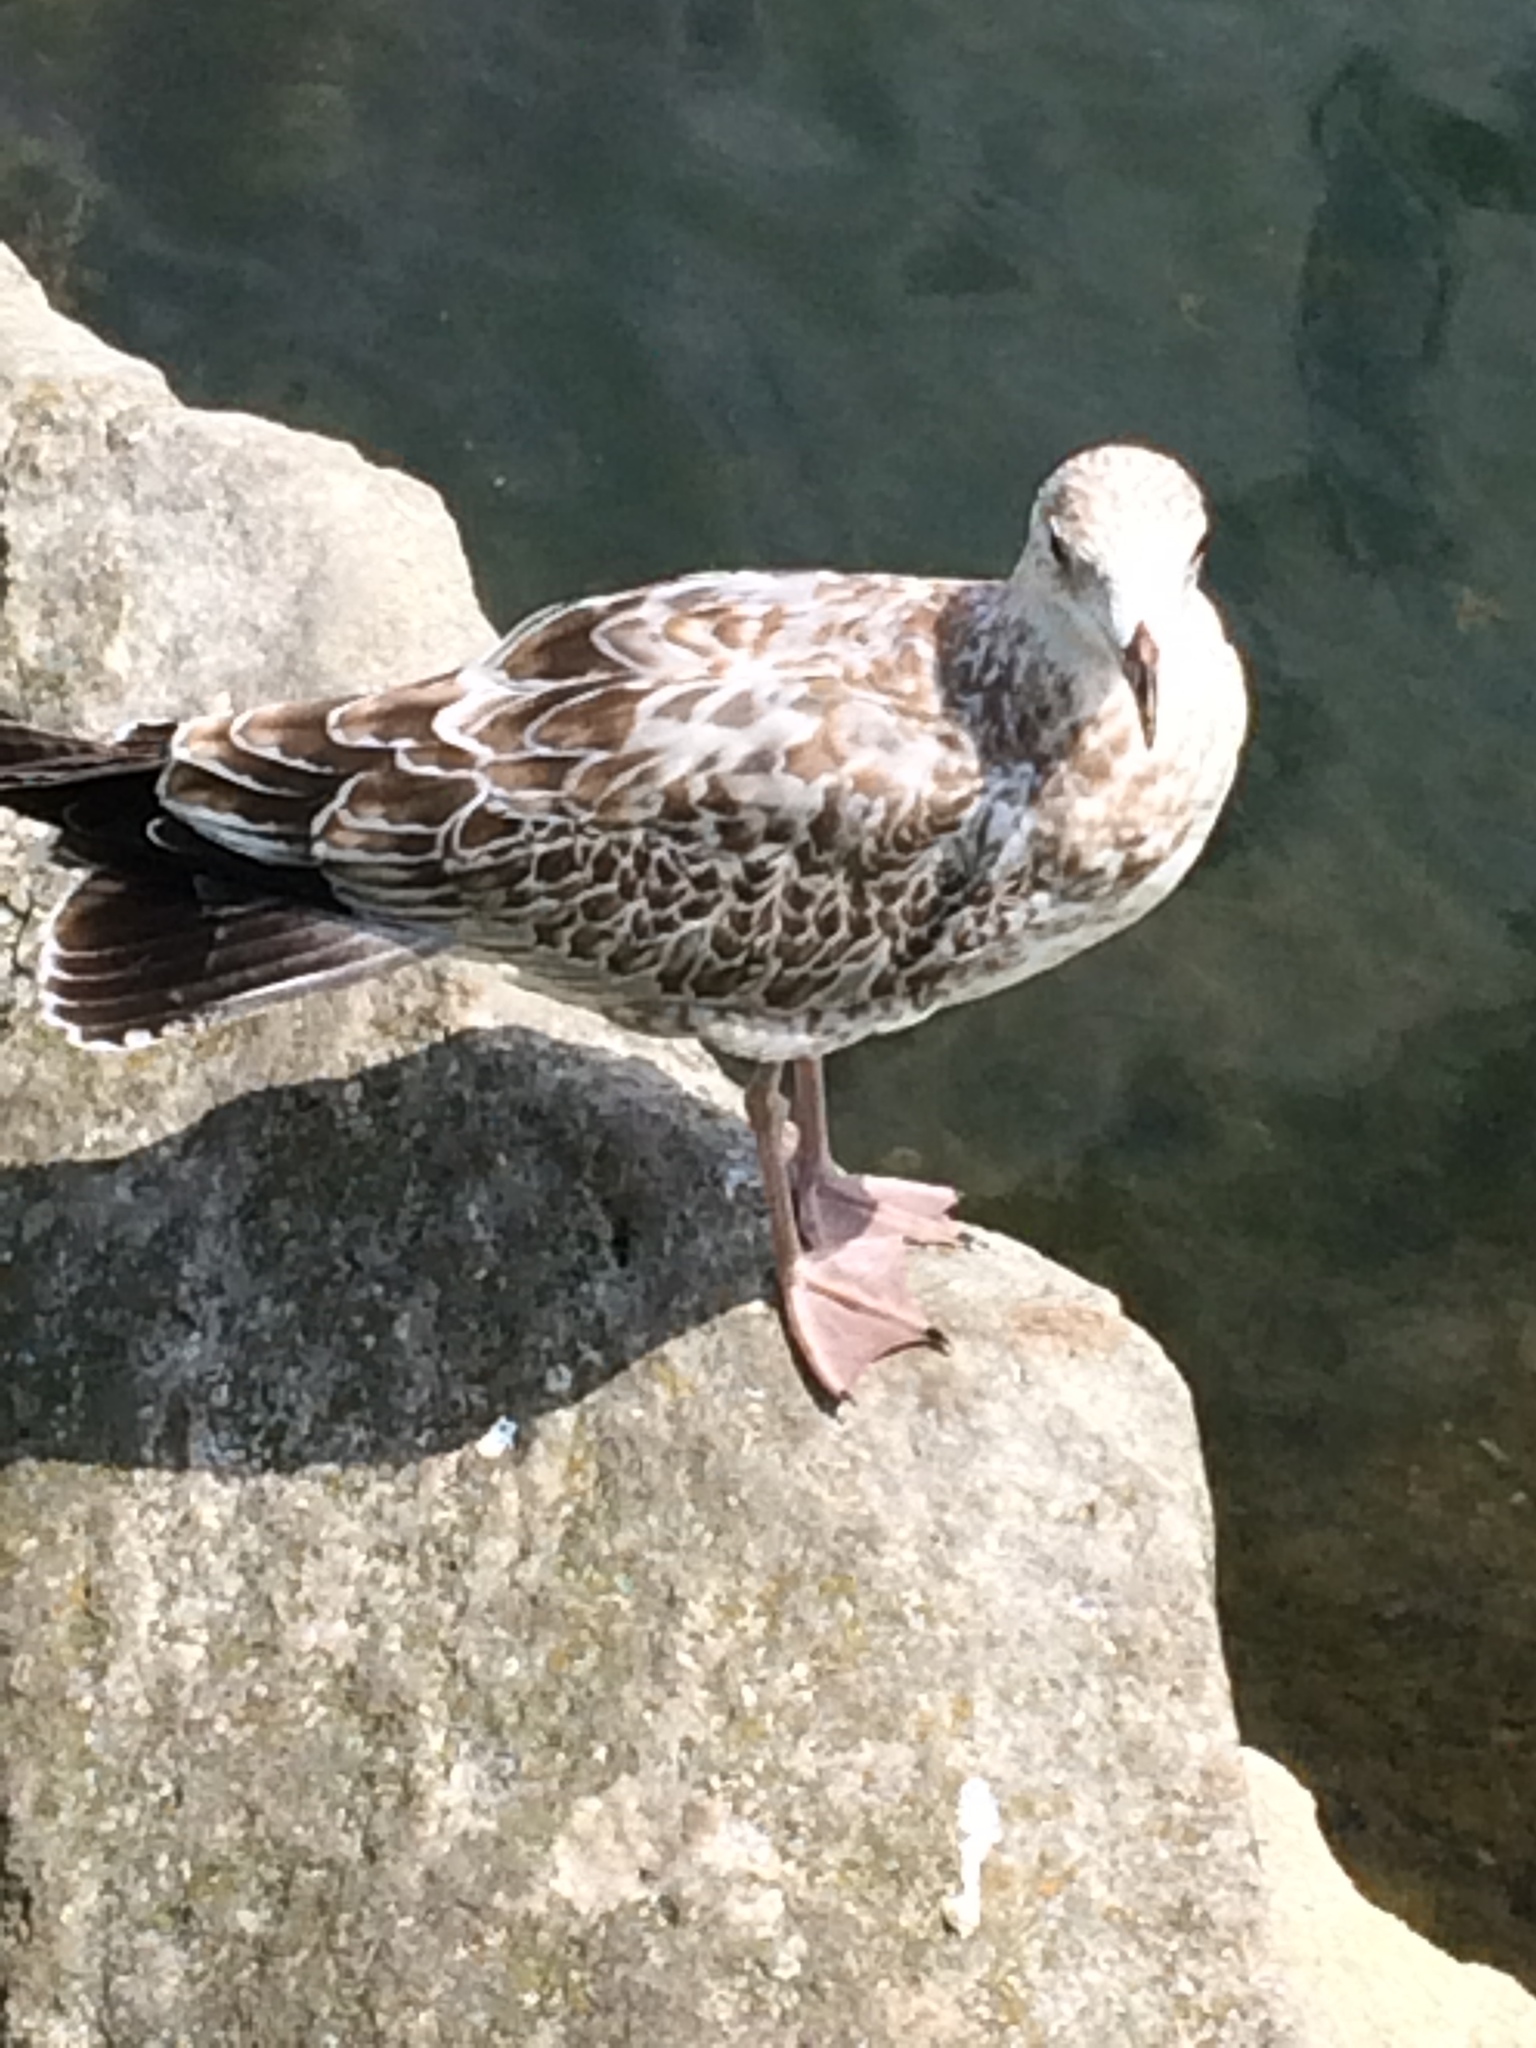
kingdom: Animalia
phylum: Chordata
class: Aves
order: Charadriiformes
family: Laridae
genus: Larus
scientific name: Larus delawarensis
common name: Ring-billed gull
